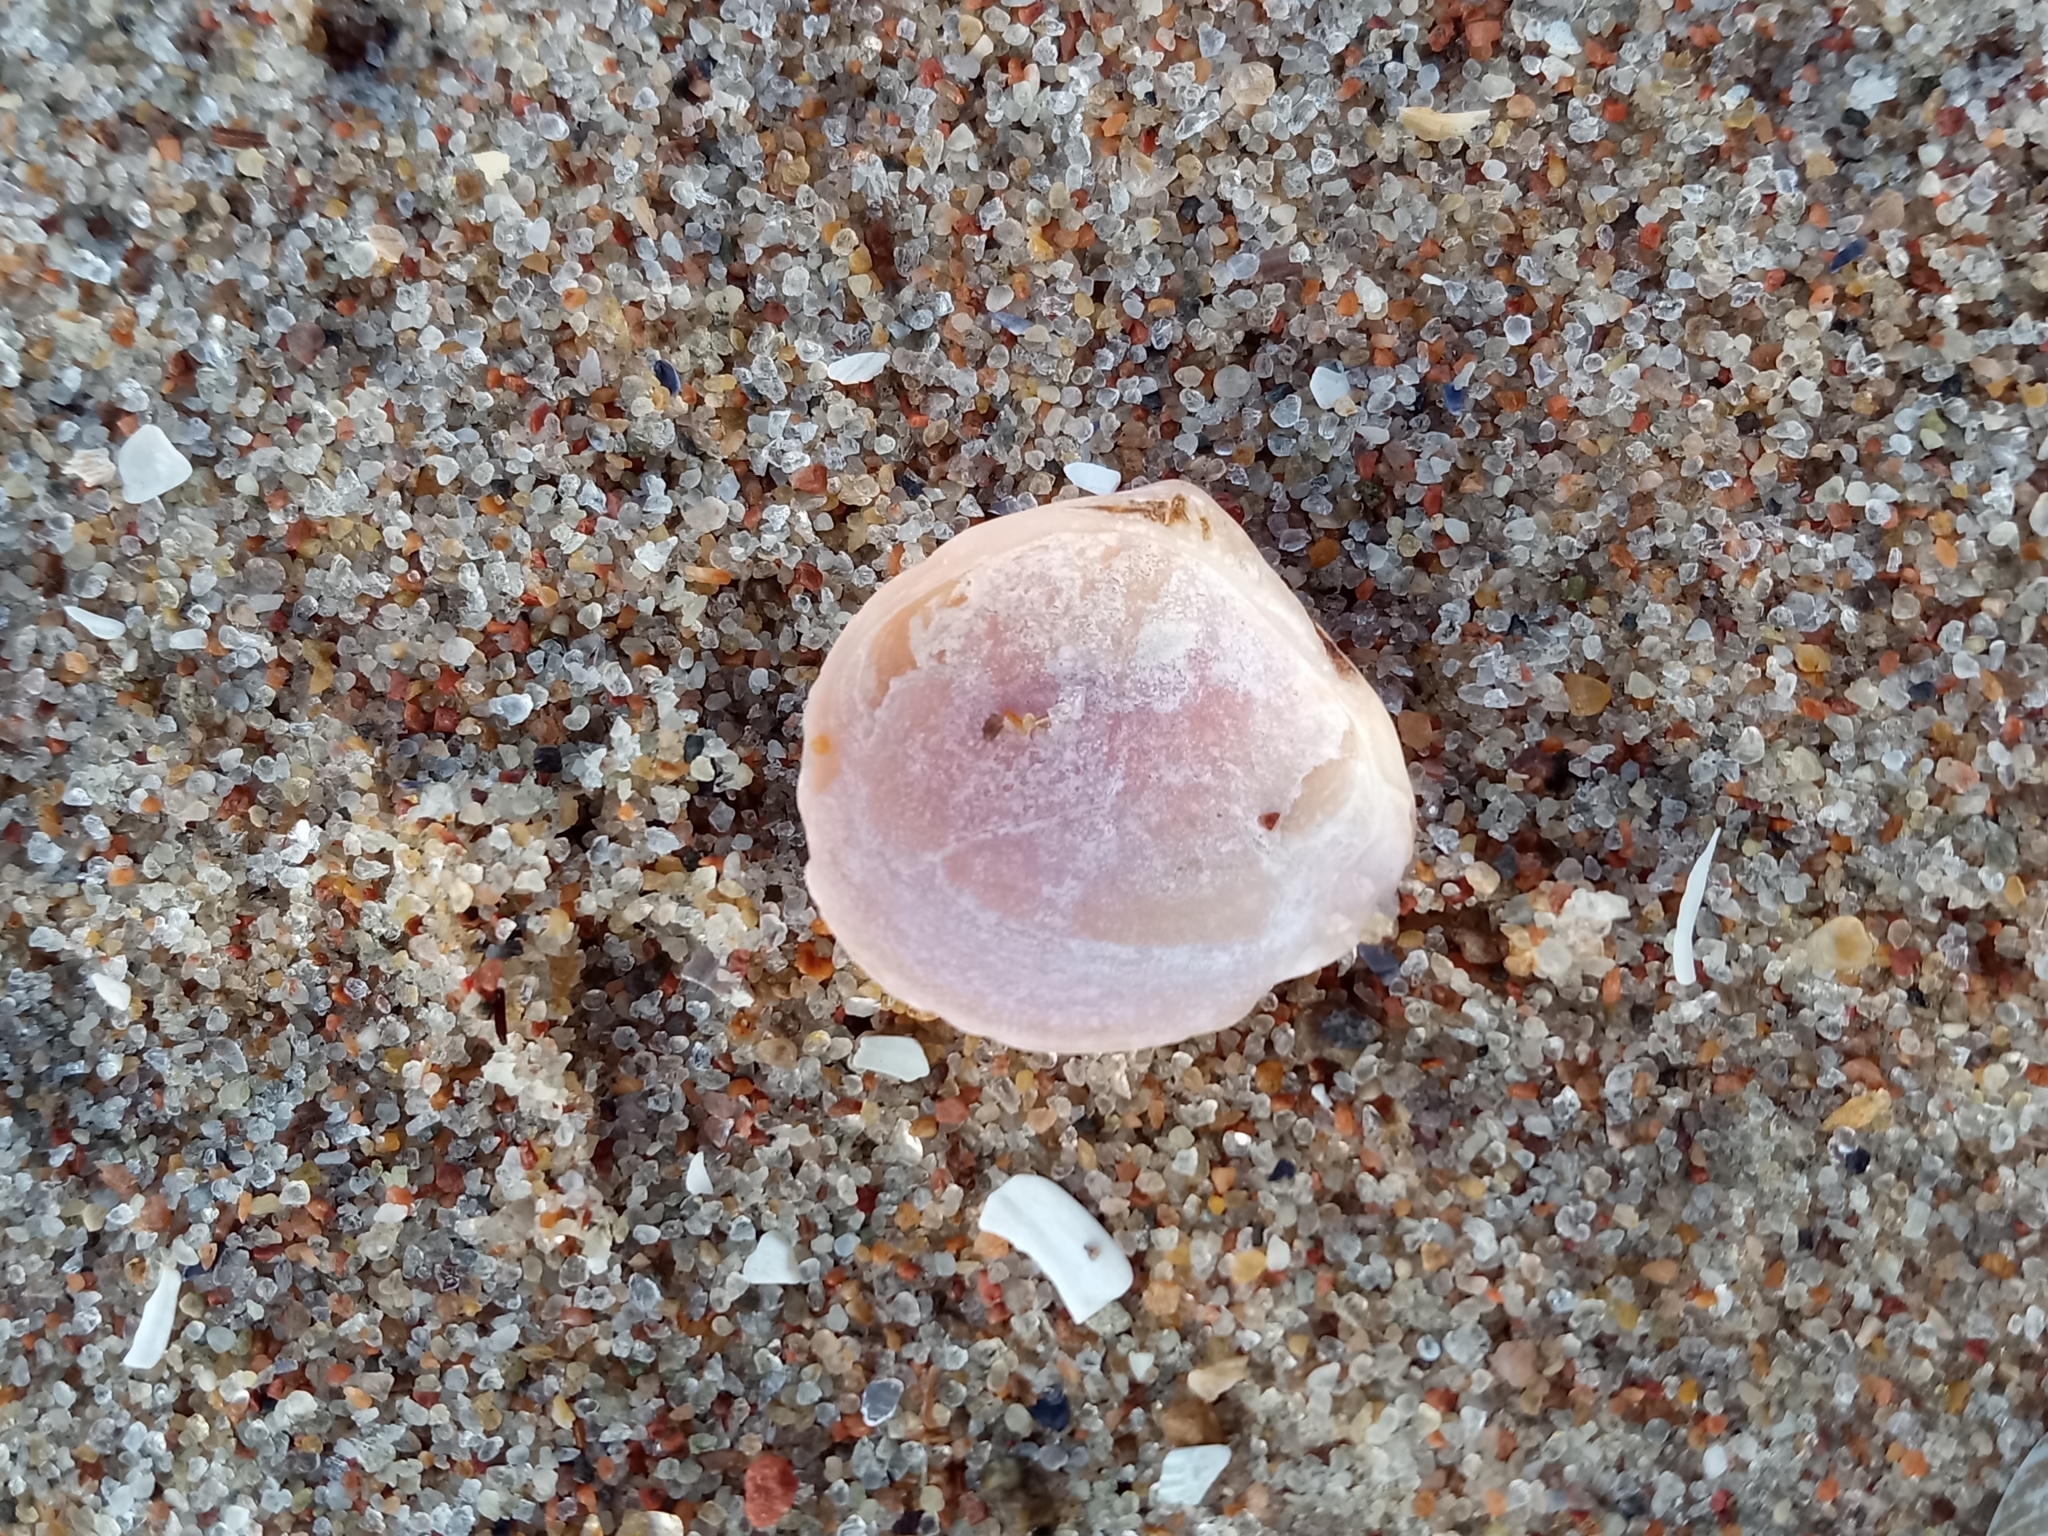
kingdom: Animalia
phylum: Mollusca
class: Bivalvia
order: Cardiida
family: Tellinidae
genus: Macoma
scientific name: Macoma balthica
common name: Baltic tellin
